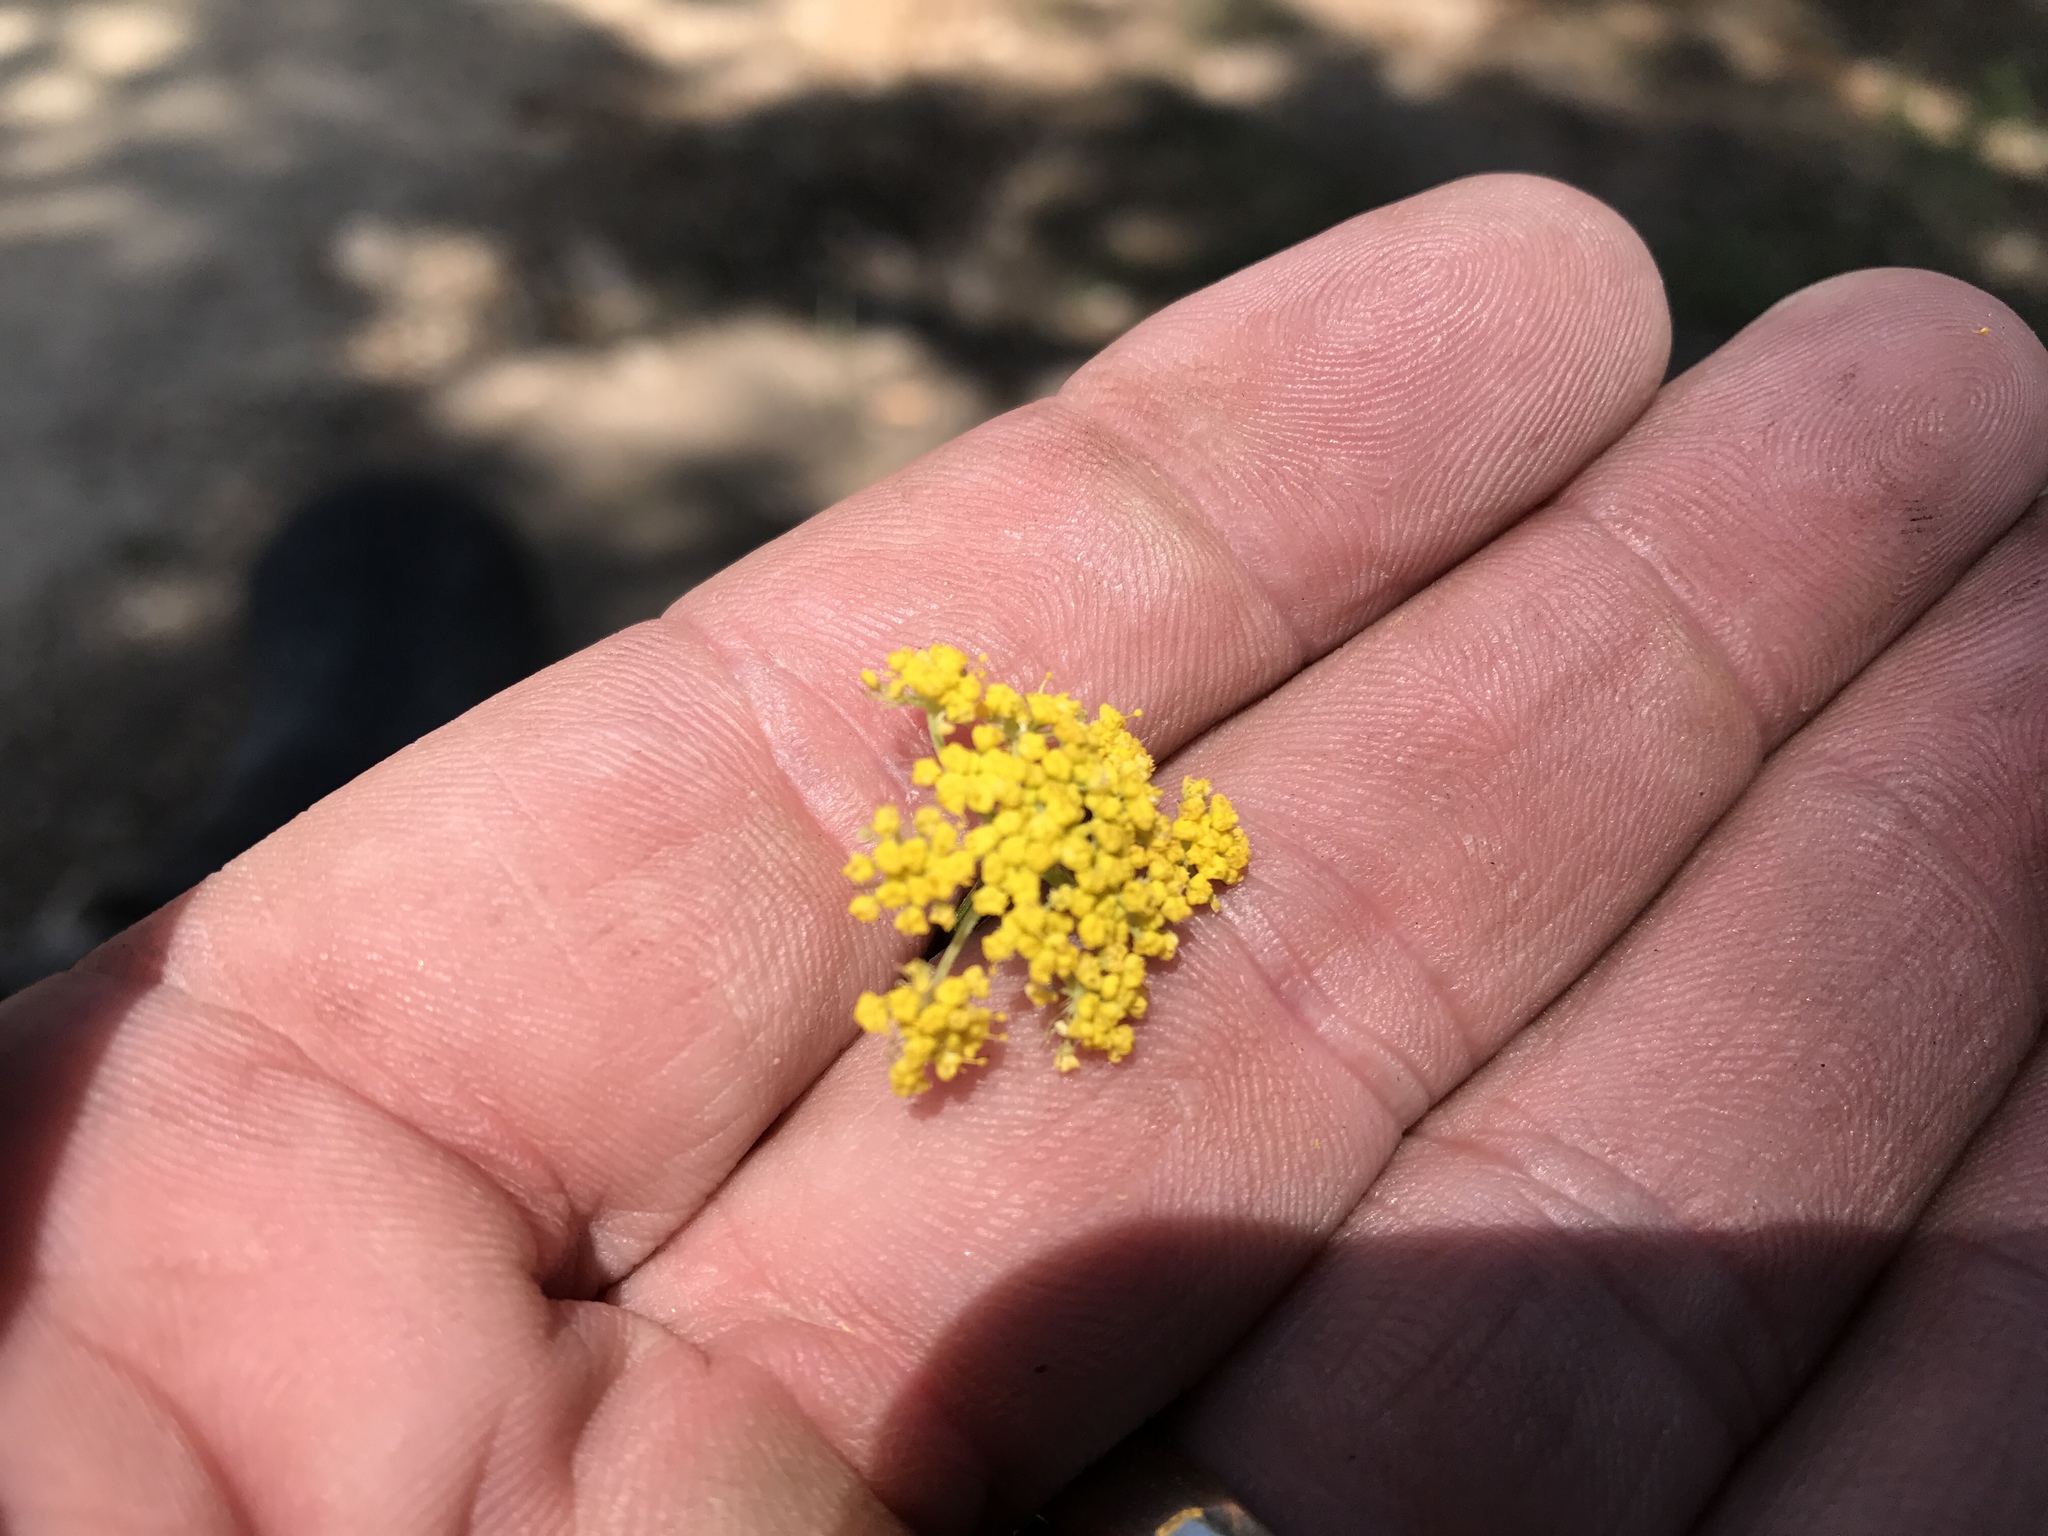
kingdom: Plantae
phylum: Tracheophyta
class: Magnoliopsida
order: Apiales
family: Apiaceae
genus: Cymopterus
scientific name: Cymopterus lemmonii
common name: Lemmon's spring-parsley
